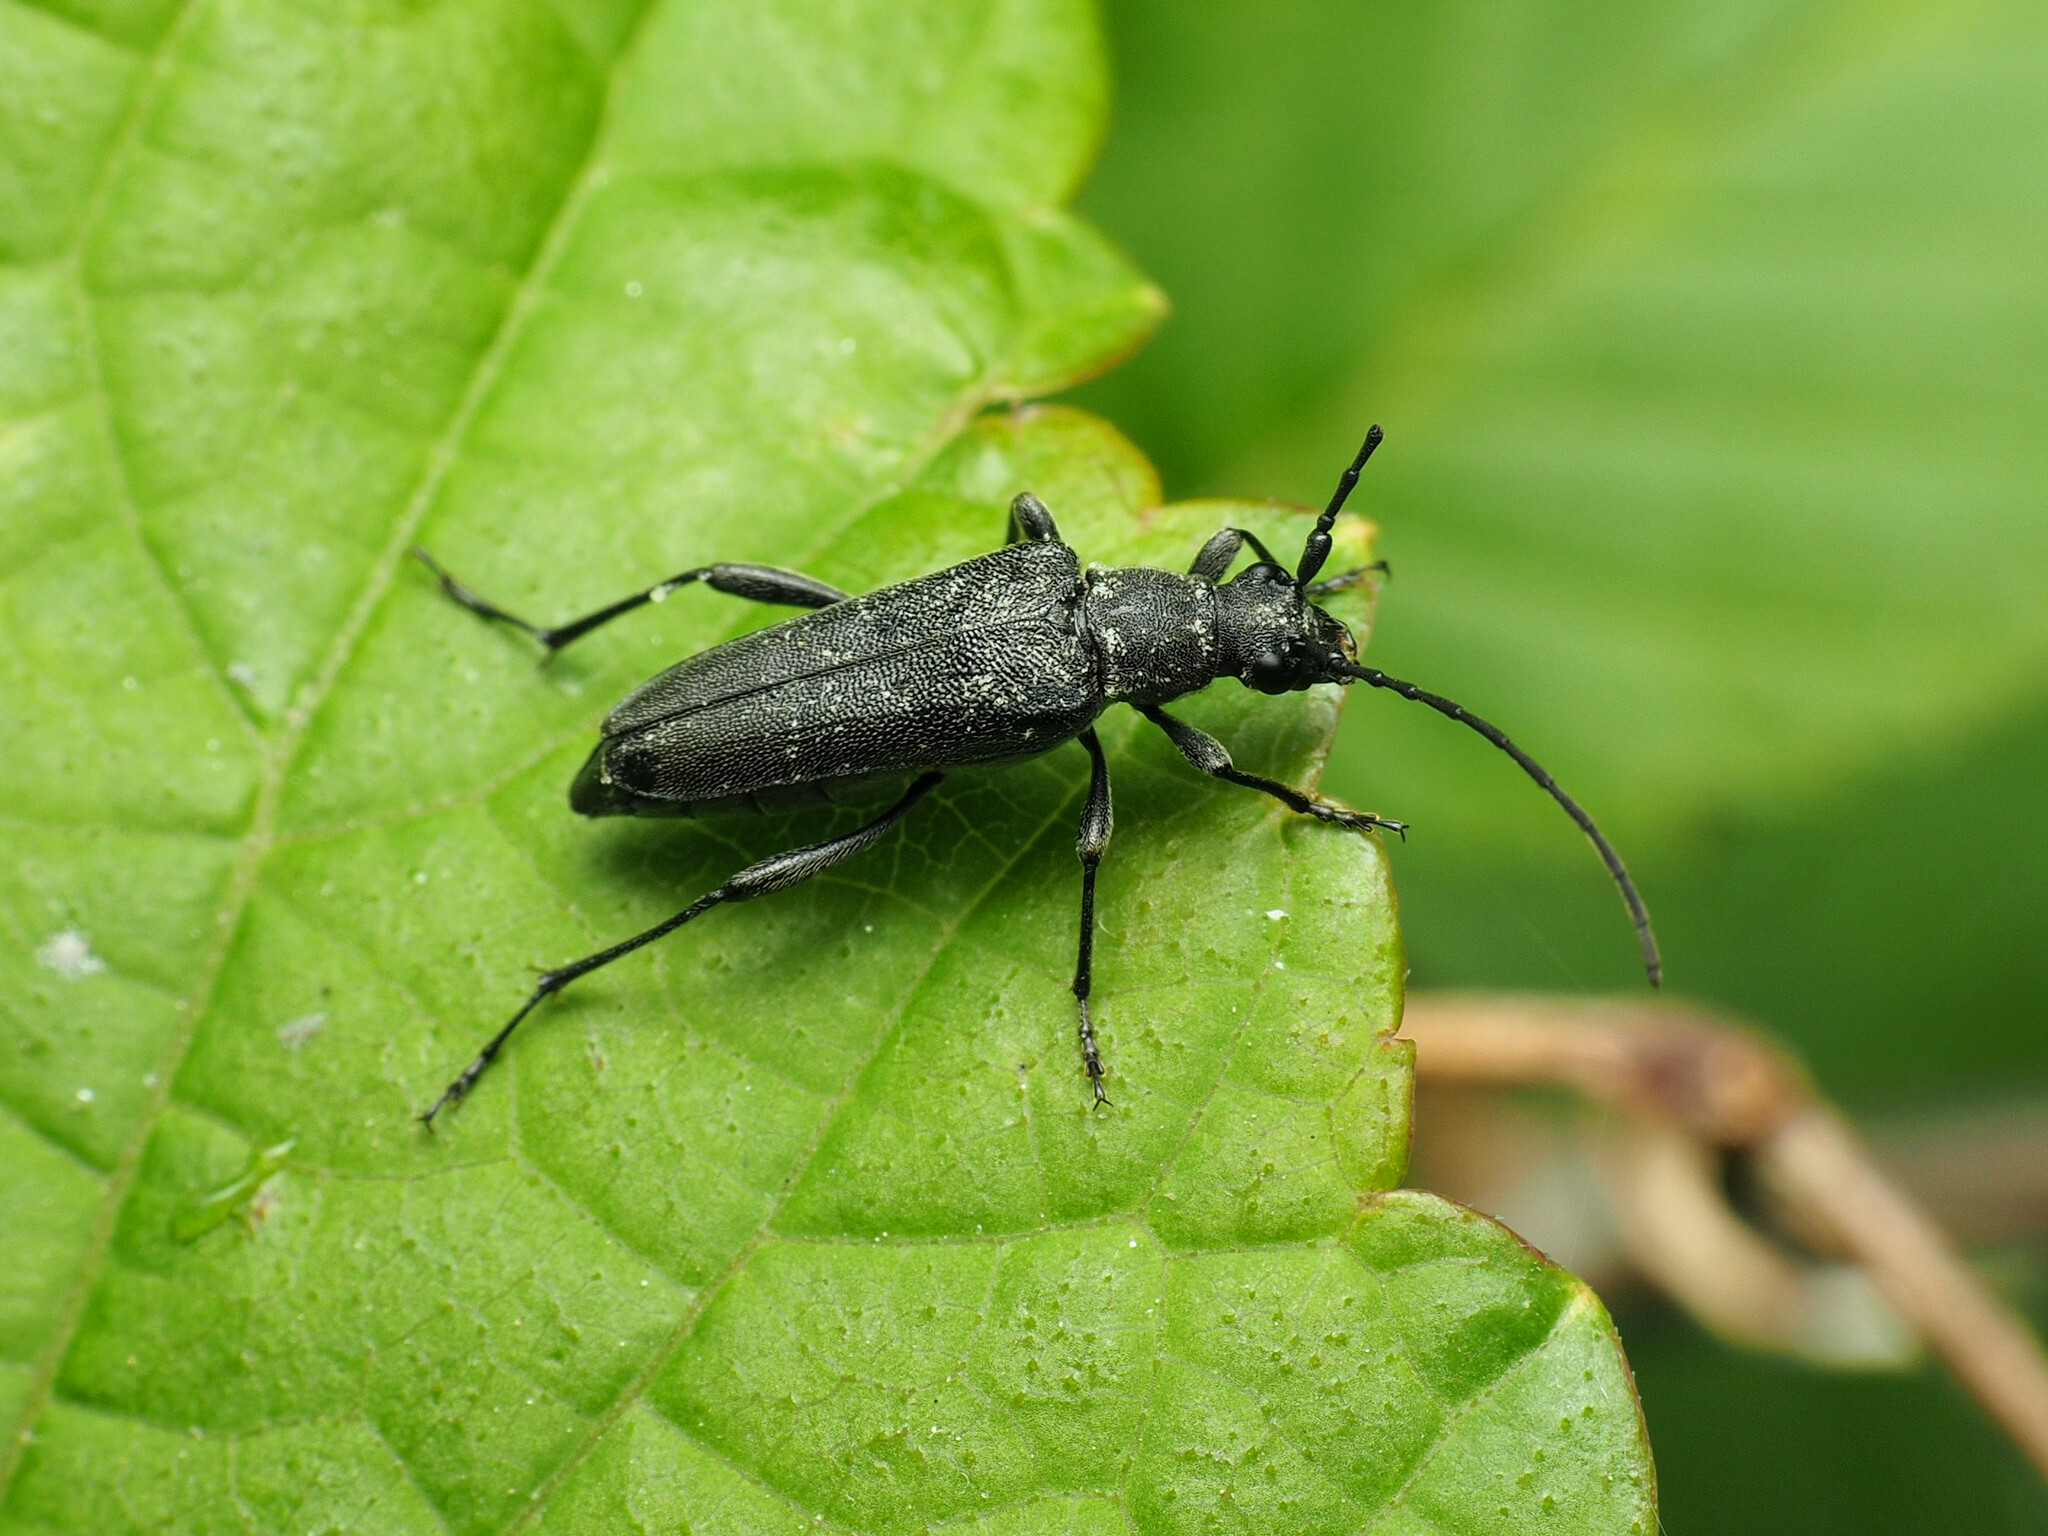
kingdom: Animalia
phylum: Arthropoda
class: Insecta
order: Coleoptera
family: Cerambycidae
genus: Anoplodera
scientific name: Anoplodera pubera
